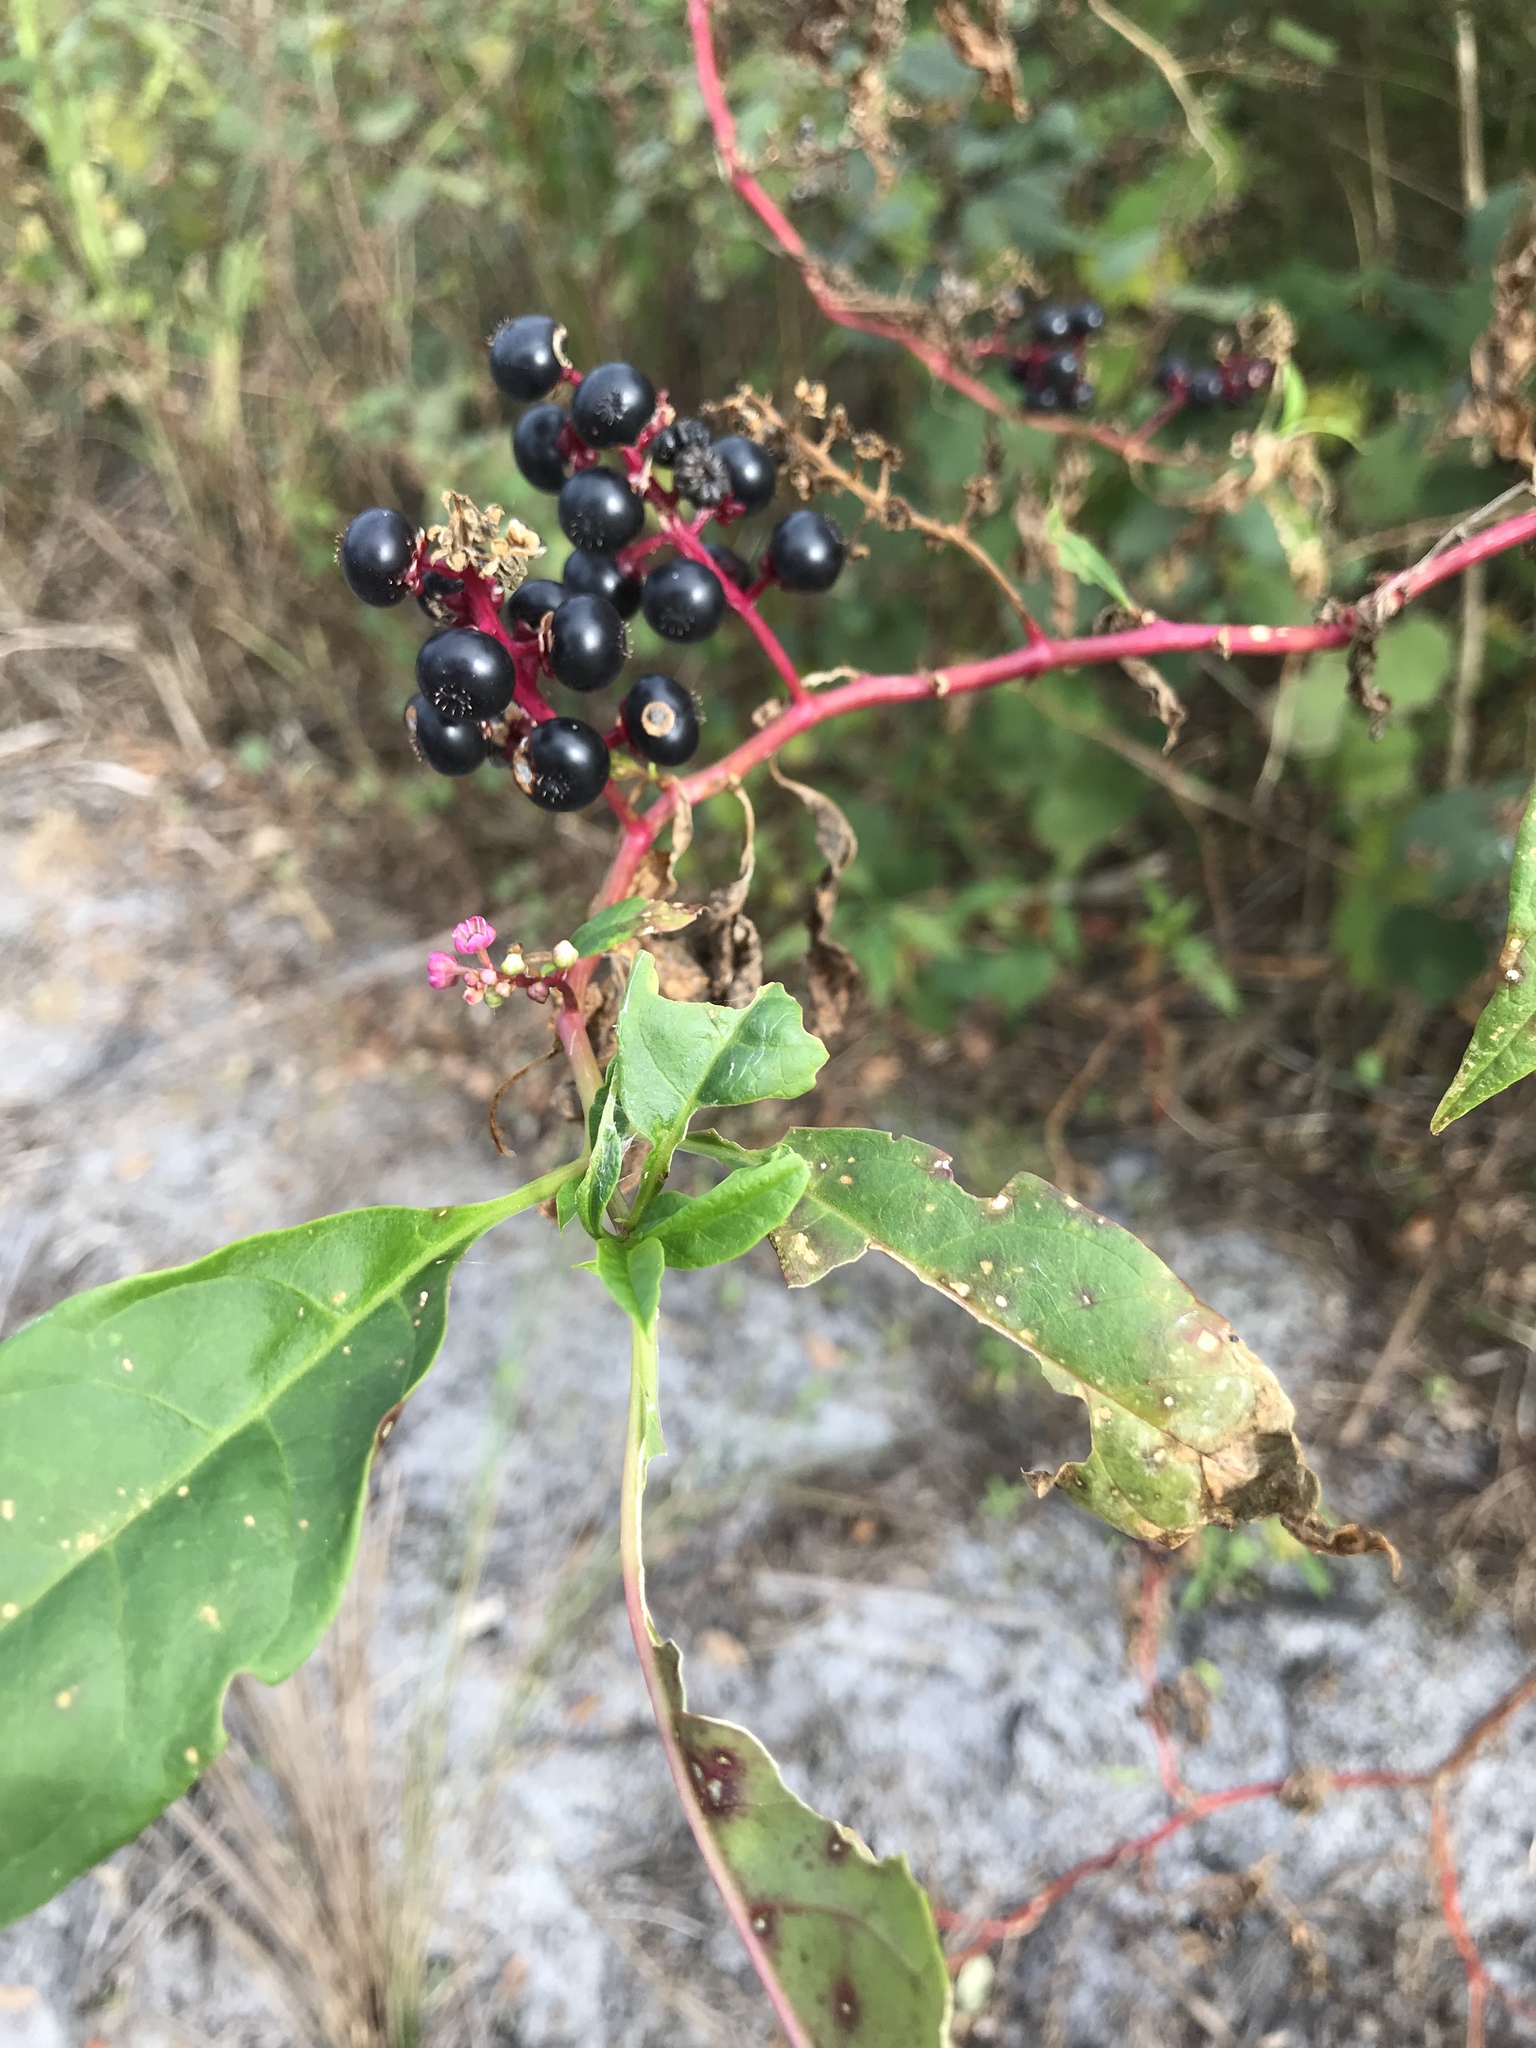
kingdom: Plantae
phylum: Tracheophyta
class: Magnoliopsida
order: Caryophyllales
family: Phytolaccaceae
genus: Phytolacca
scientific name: Phytolacca americana
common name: American pokeweed
